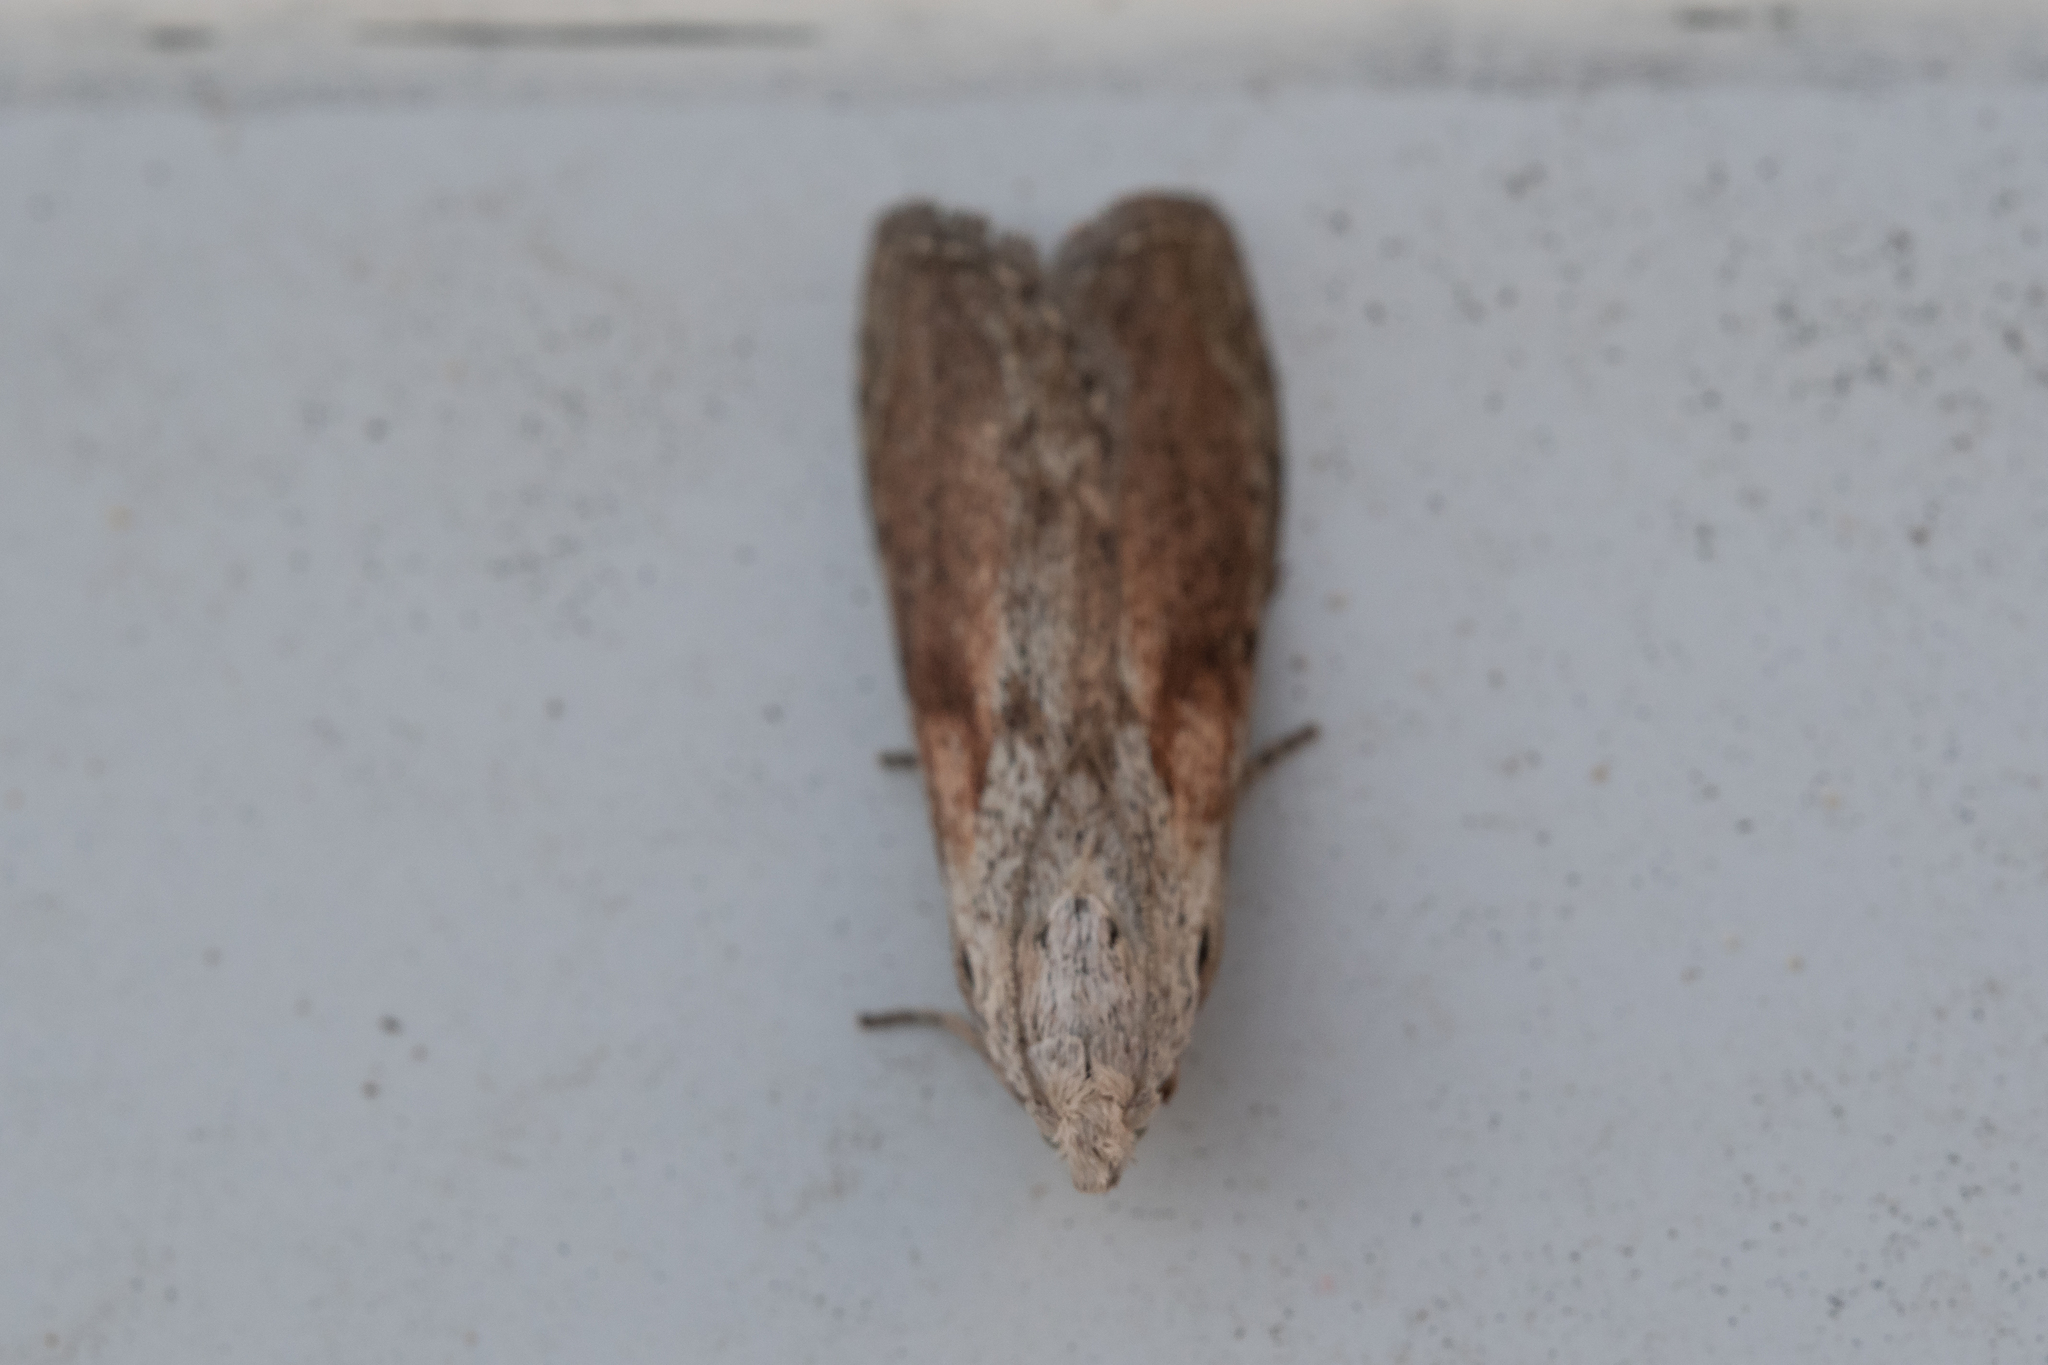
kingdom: Animalia
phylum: Arthropoda
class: Insecta
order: Lepidoptera
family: Pyralidae
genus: Aphomia
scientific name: Aphomia sociella
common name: Bee moth
